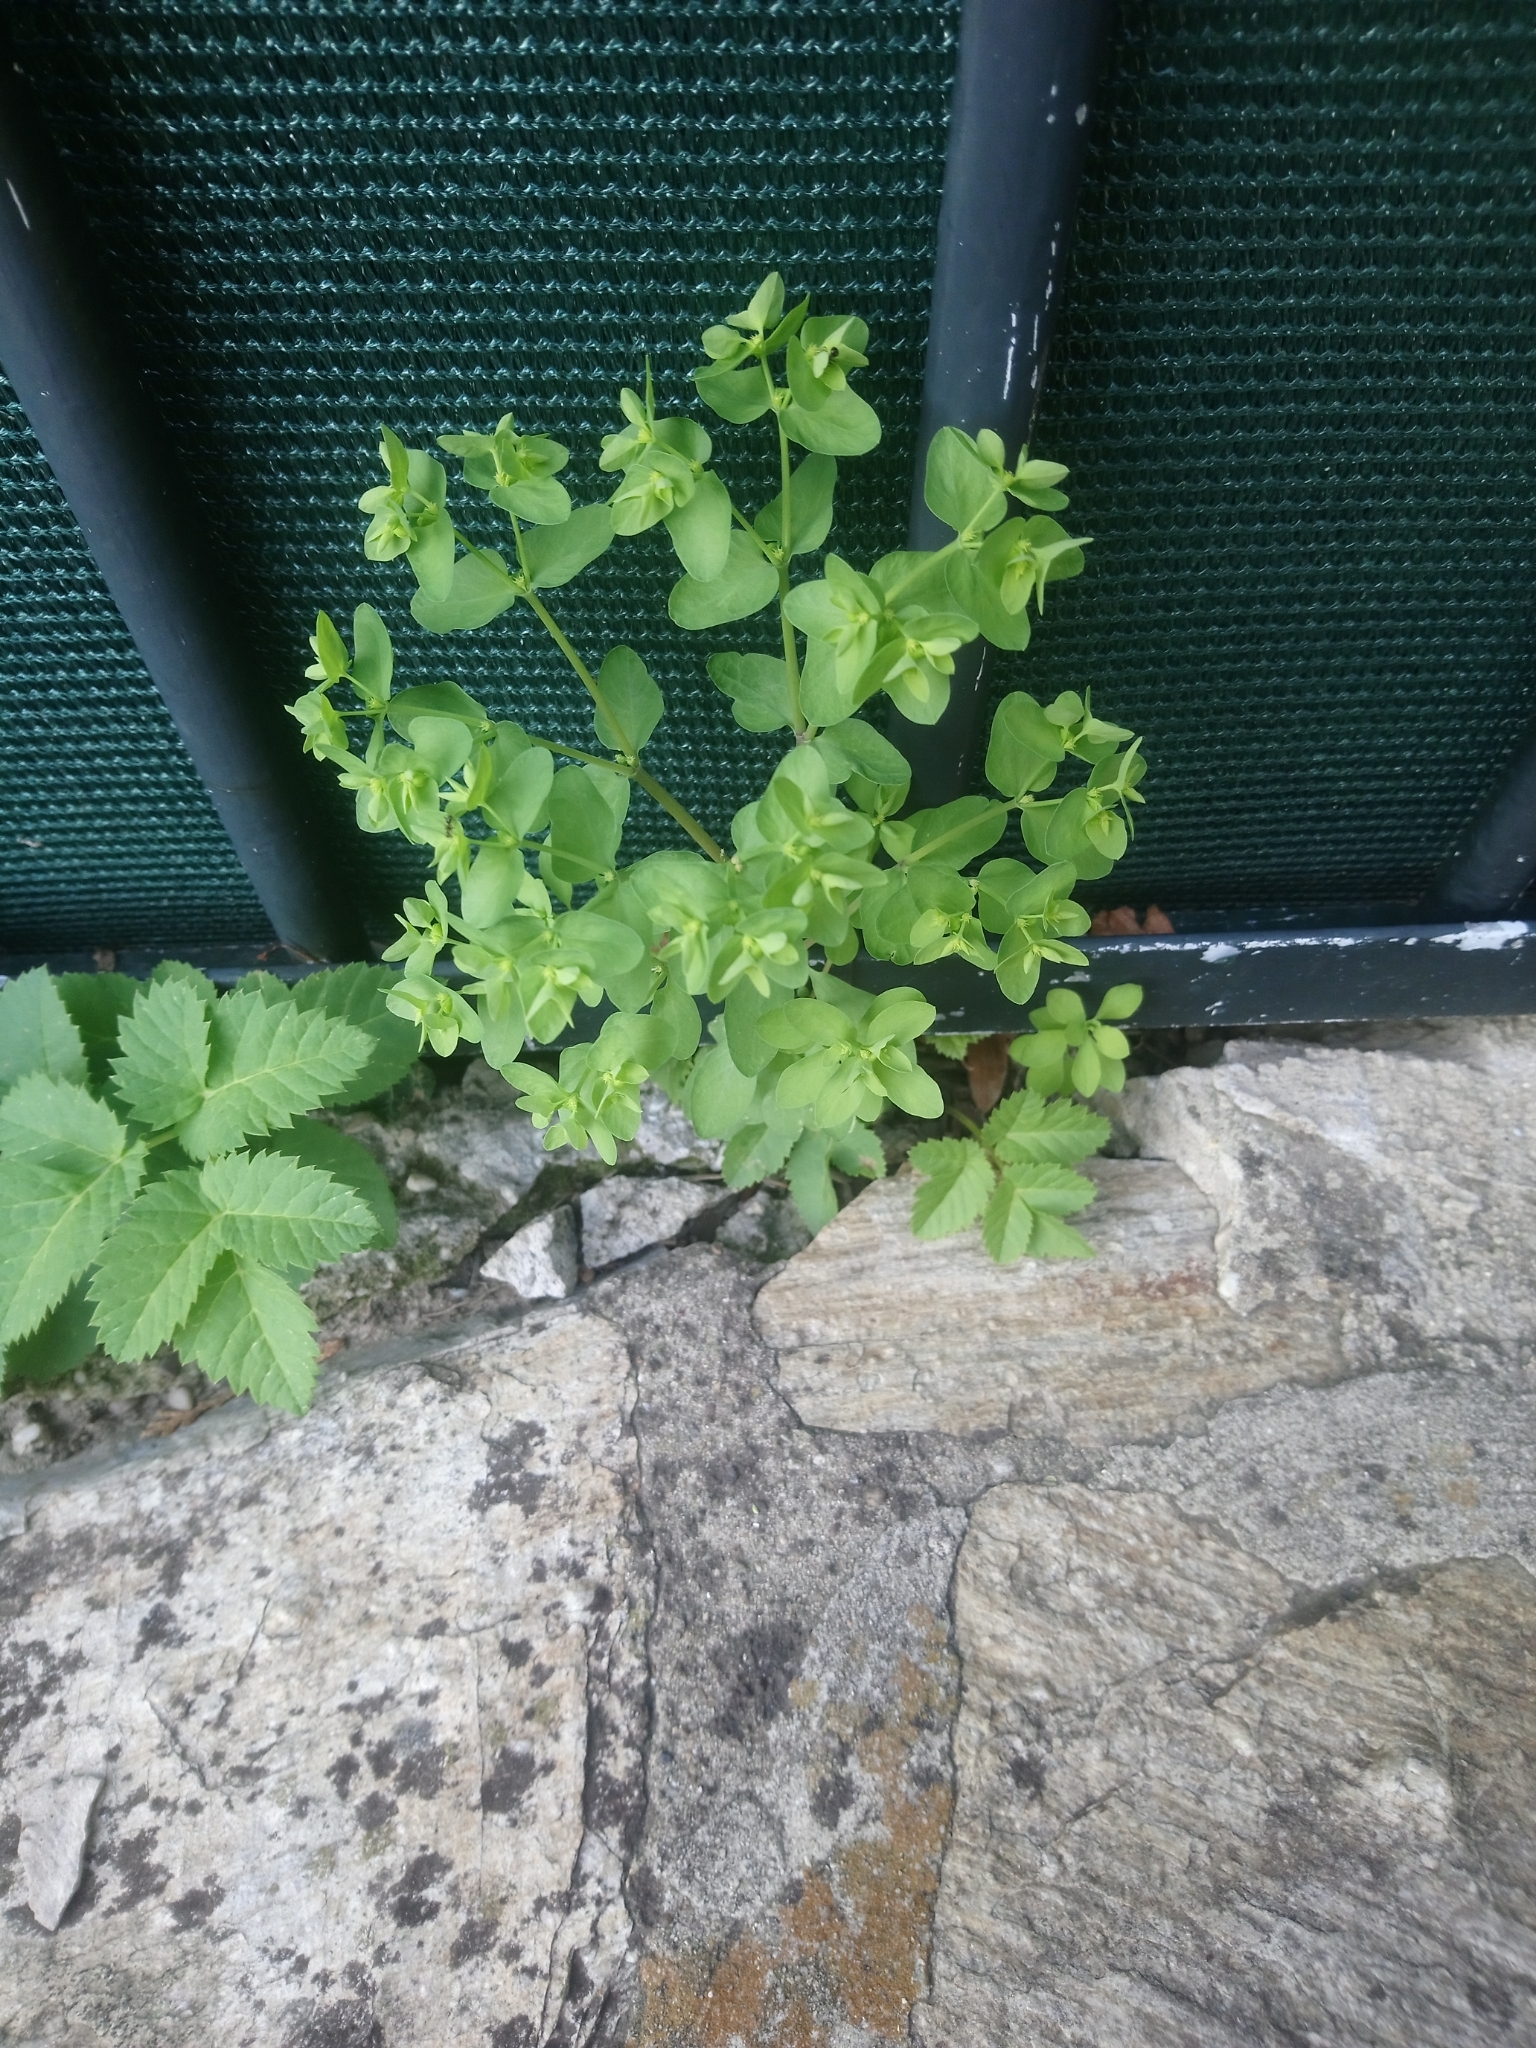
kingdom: Plantae
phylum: Tracheophyta
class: Magnoliopsida
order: Malpighiales
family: Euphorbiaceae
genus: Euphorbia
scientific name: Euphorbia peplus
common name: Petty spurge
